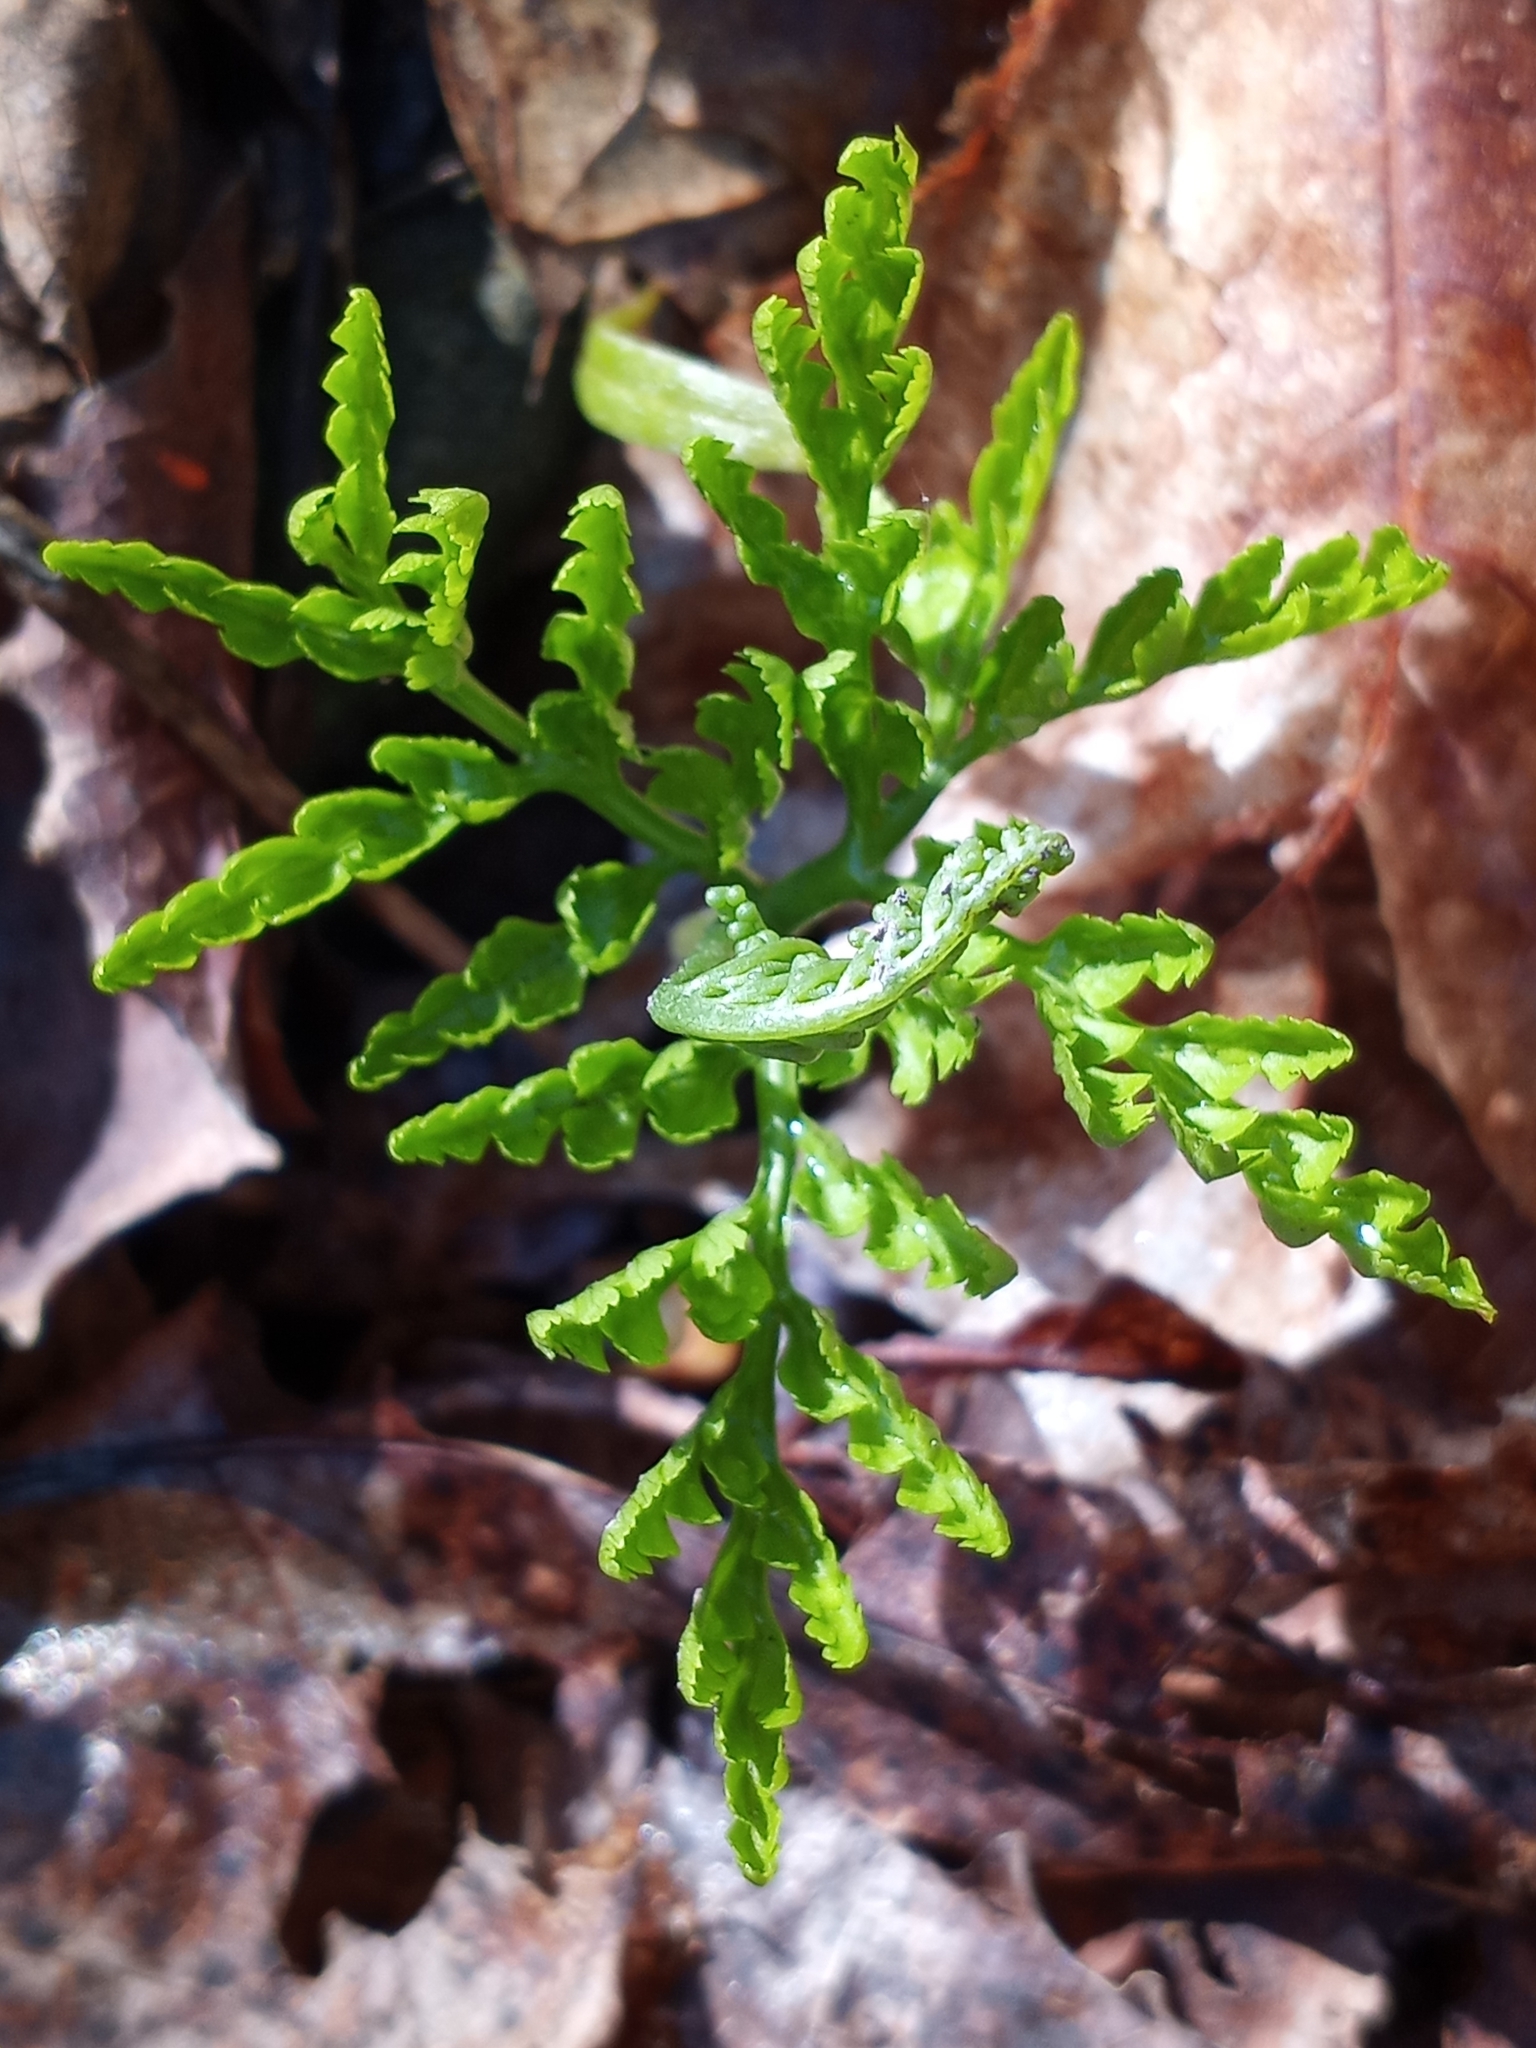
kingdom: Plantae
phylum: Tracheophyta
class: Polypodiopsida
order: Ophioglossales
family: Ophioglossaceae
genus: Botrypus
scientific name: Botrypus virginianus
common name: Common grapefern
